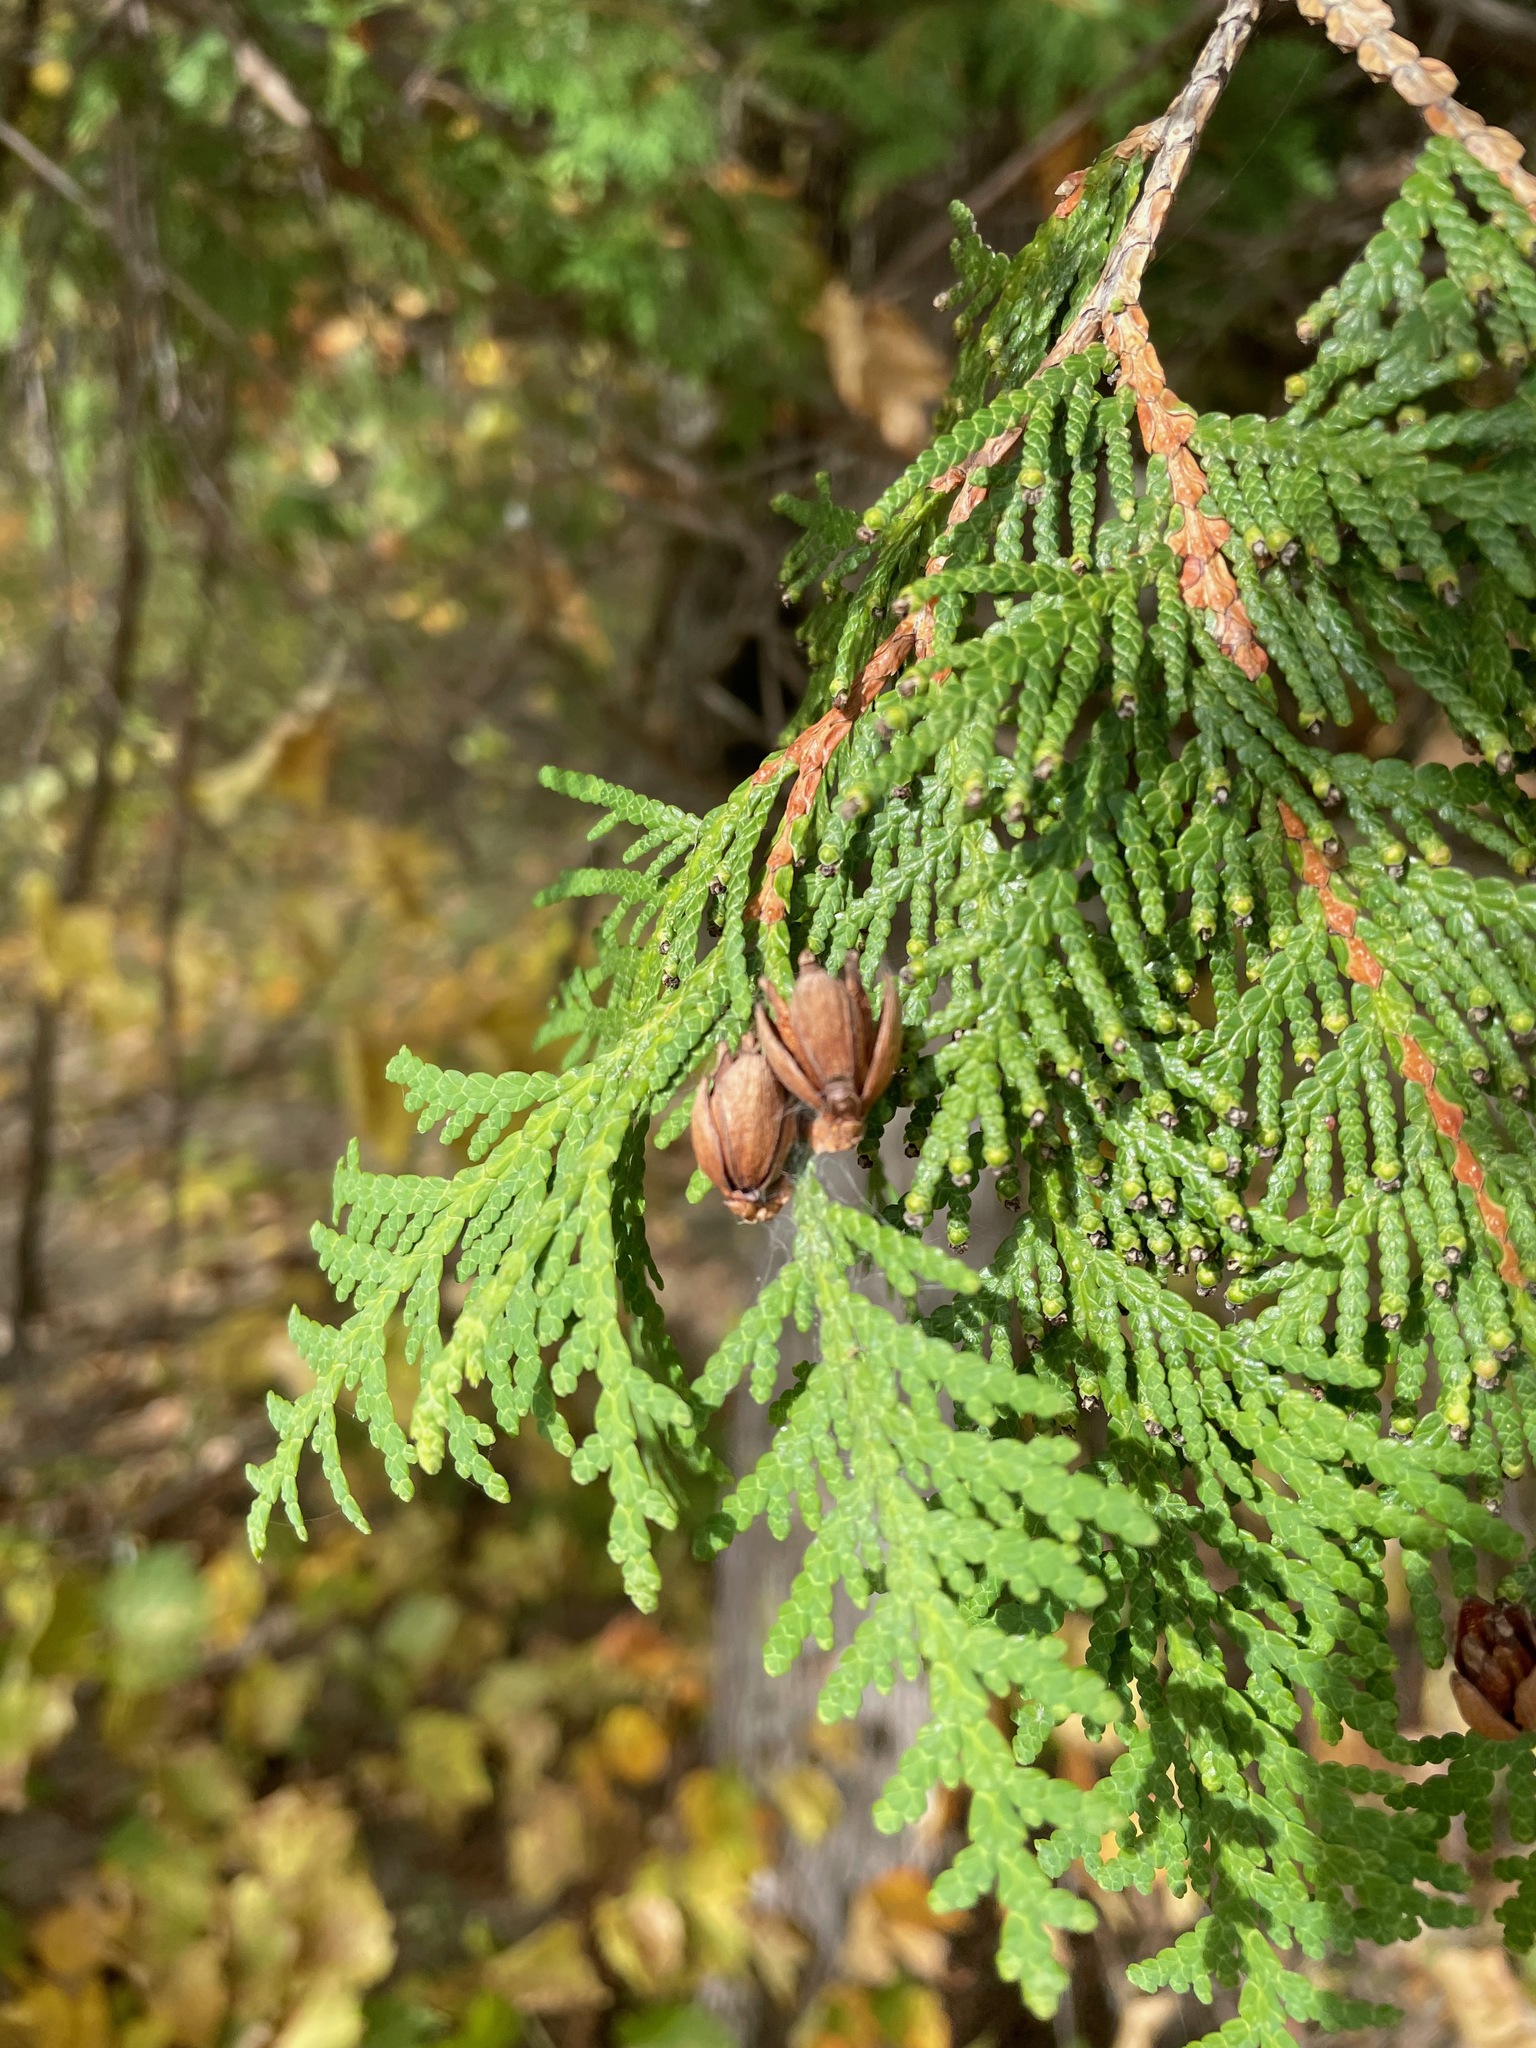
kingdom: Plantae
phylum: Tracheophyta
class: Pinopsida
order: Pinales
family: Cupressaceae
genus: Thuja
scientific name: Thuja occidentalis
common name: Northern white-cedar
